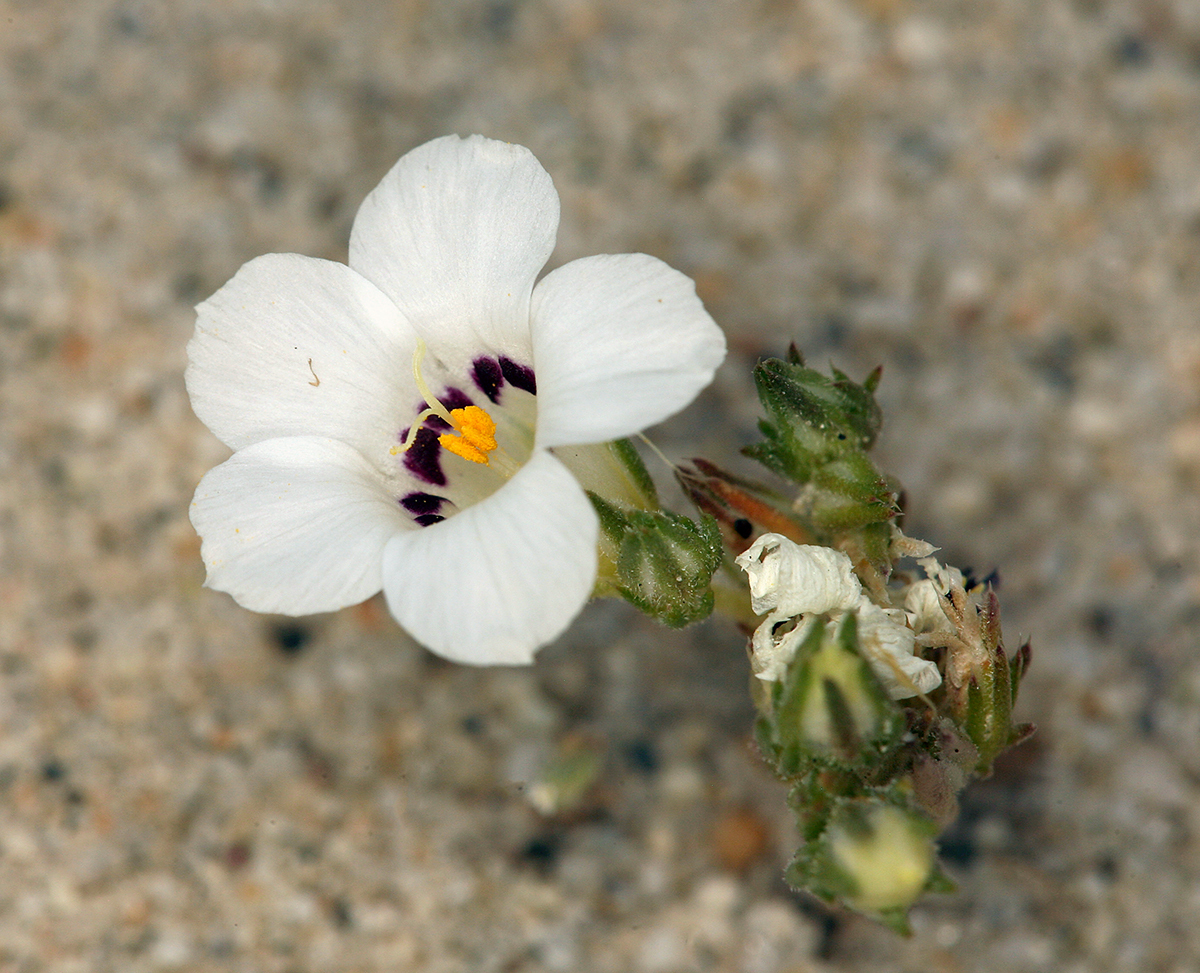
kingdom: Plantae
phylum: Tracheophyta
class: Magnoliopsida
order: Ericales
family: Polemoniaceae
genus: Linanthus
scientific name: Linanthus parryae
